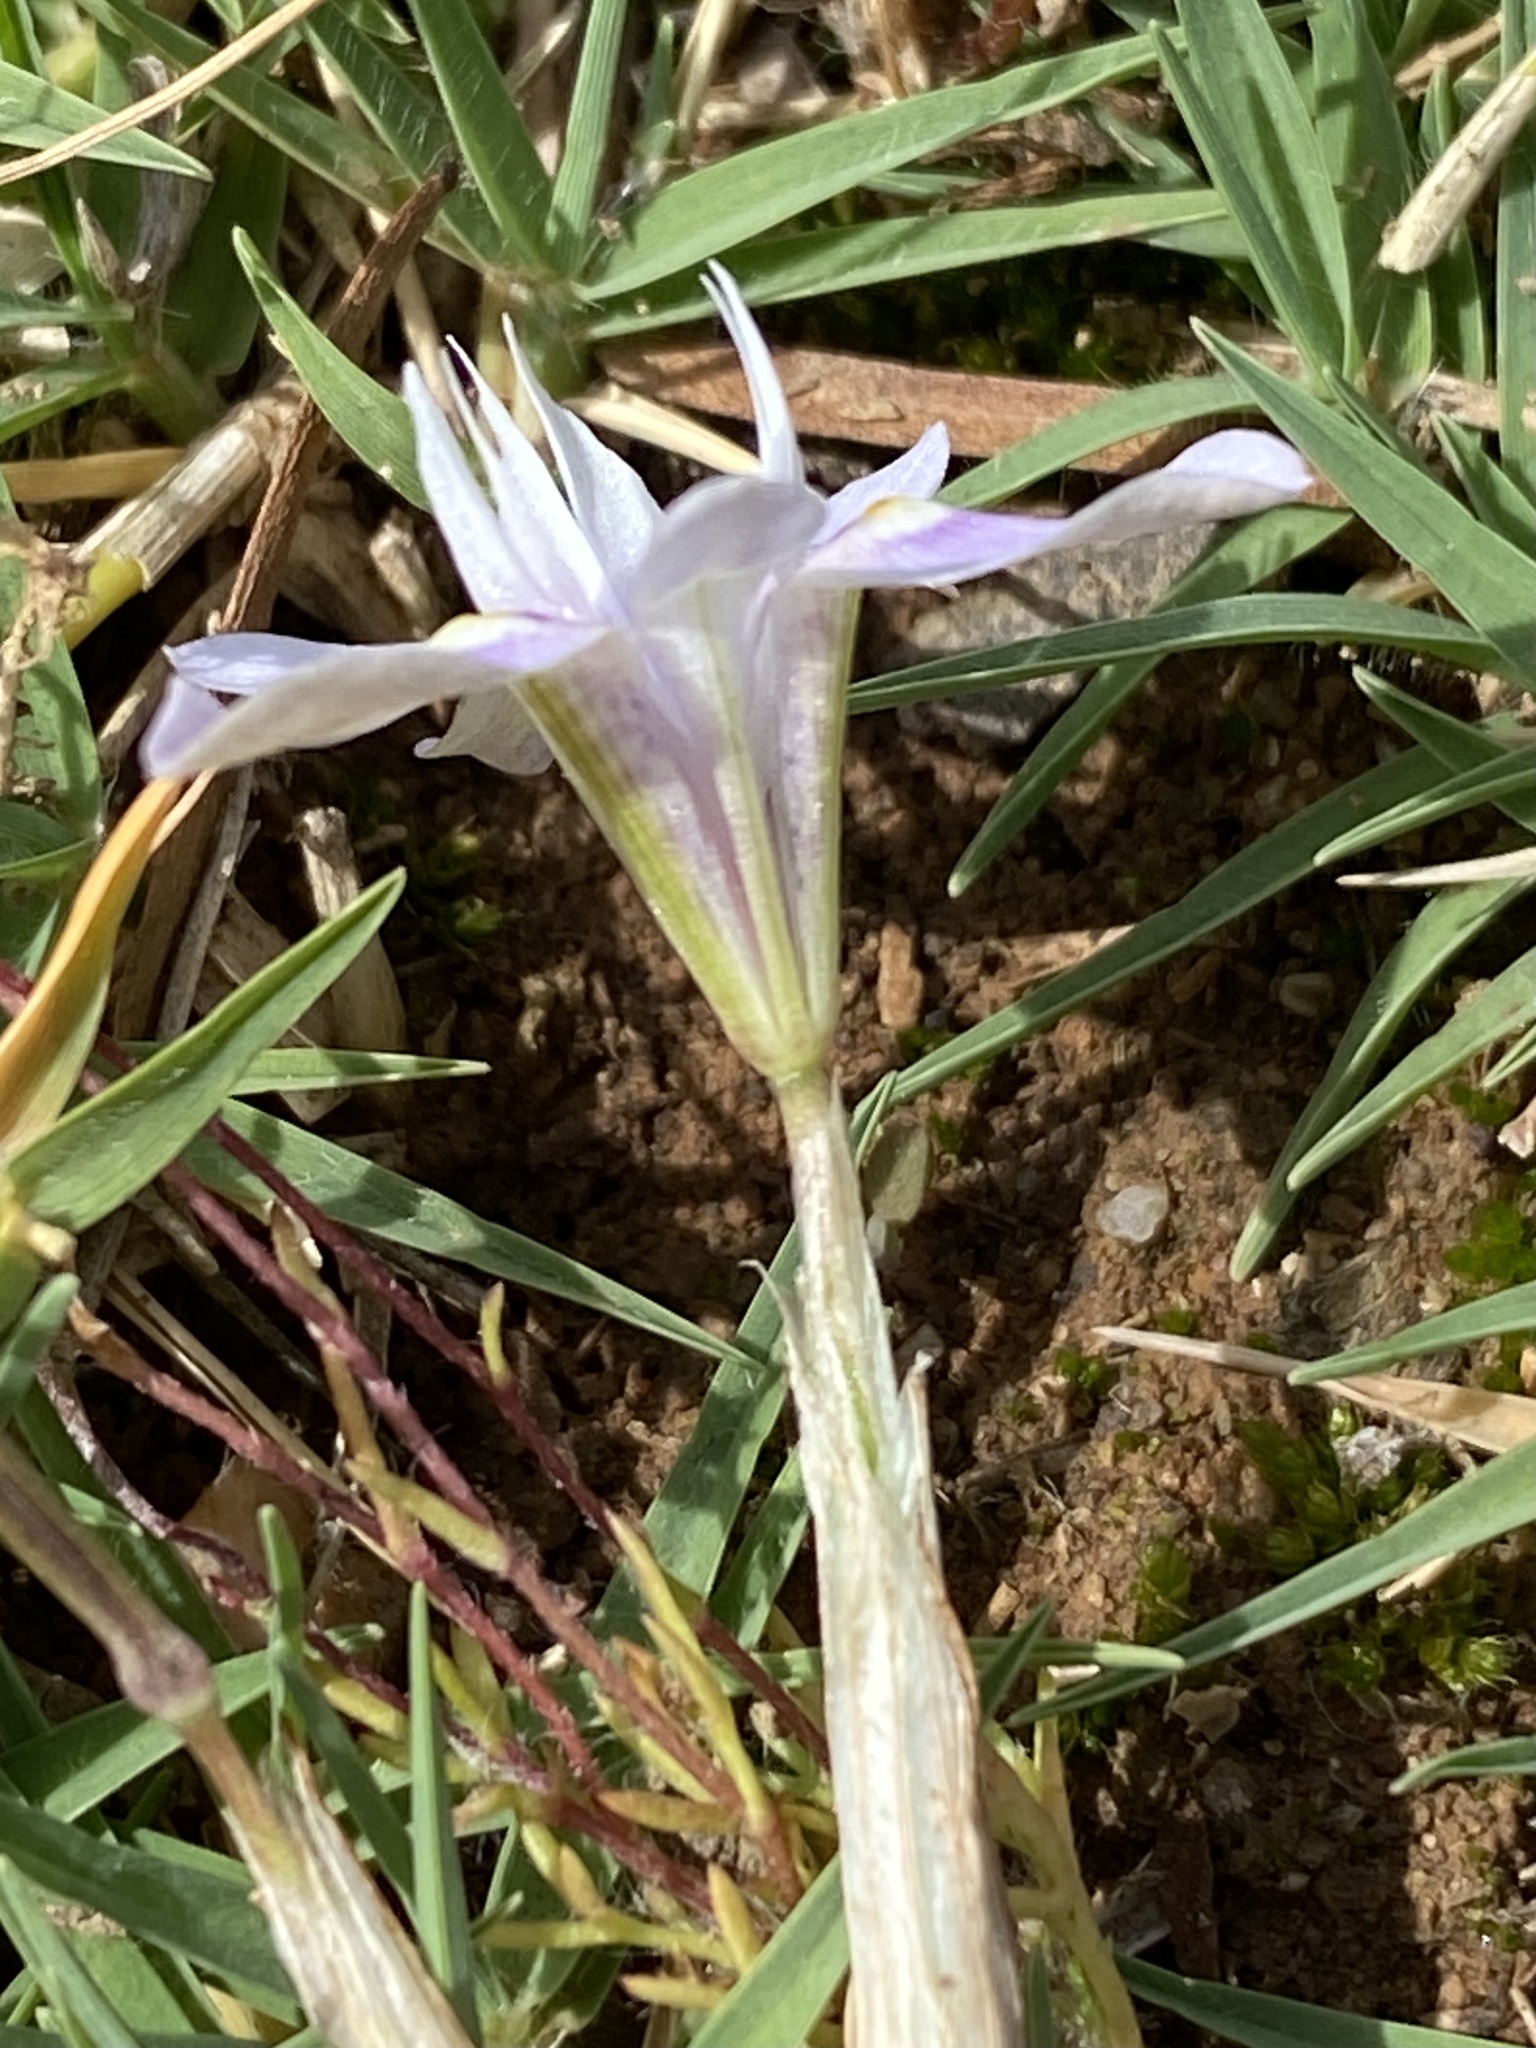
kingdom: Plantae
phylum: Tracheophyta
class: Liliopsida
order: Asparagales
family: Iridaceae
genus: Moraea
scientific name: Moraea setifolia
